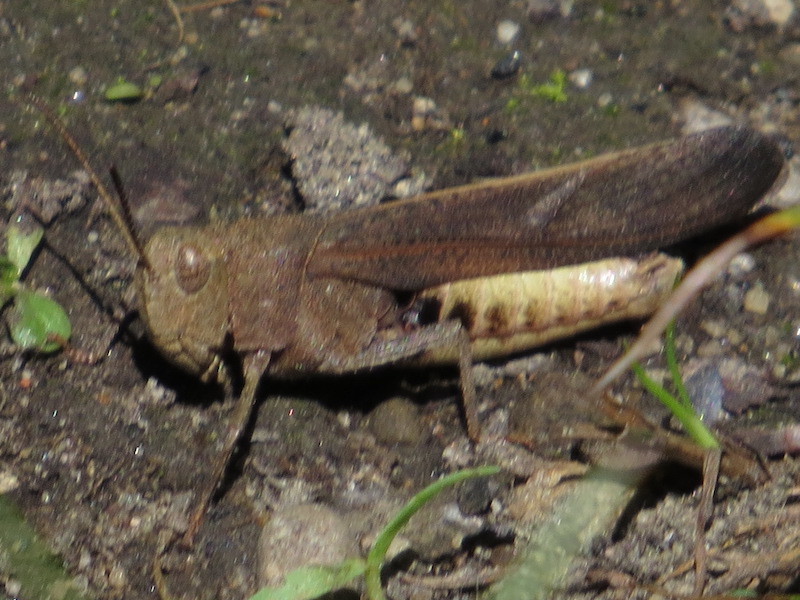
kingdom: Animalia
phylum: Arthropoda
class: Insecta
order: Orthoptera
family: Acrididae
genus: Arphia
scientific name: Arphia sulphurea
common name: Spring yellow-winged locust
